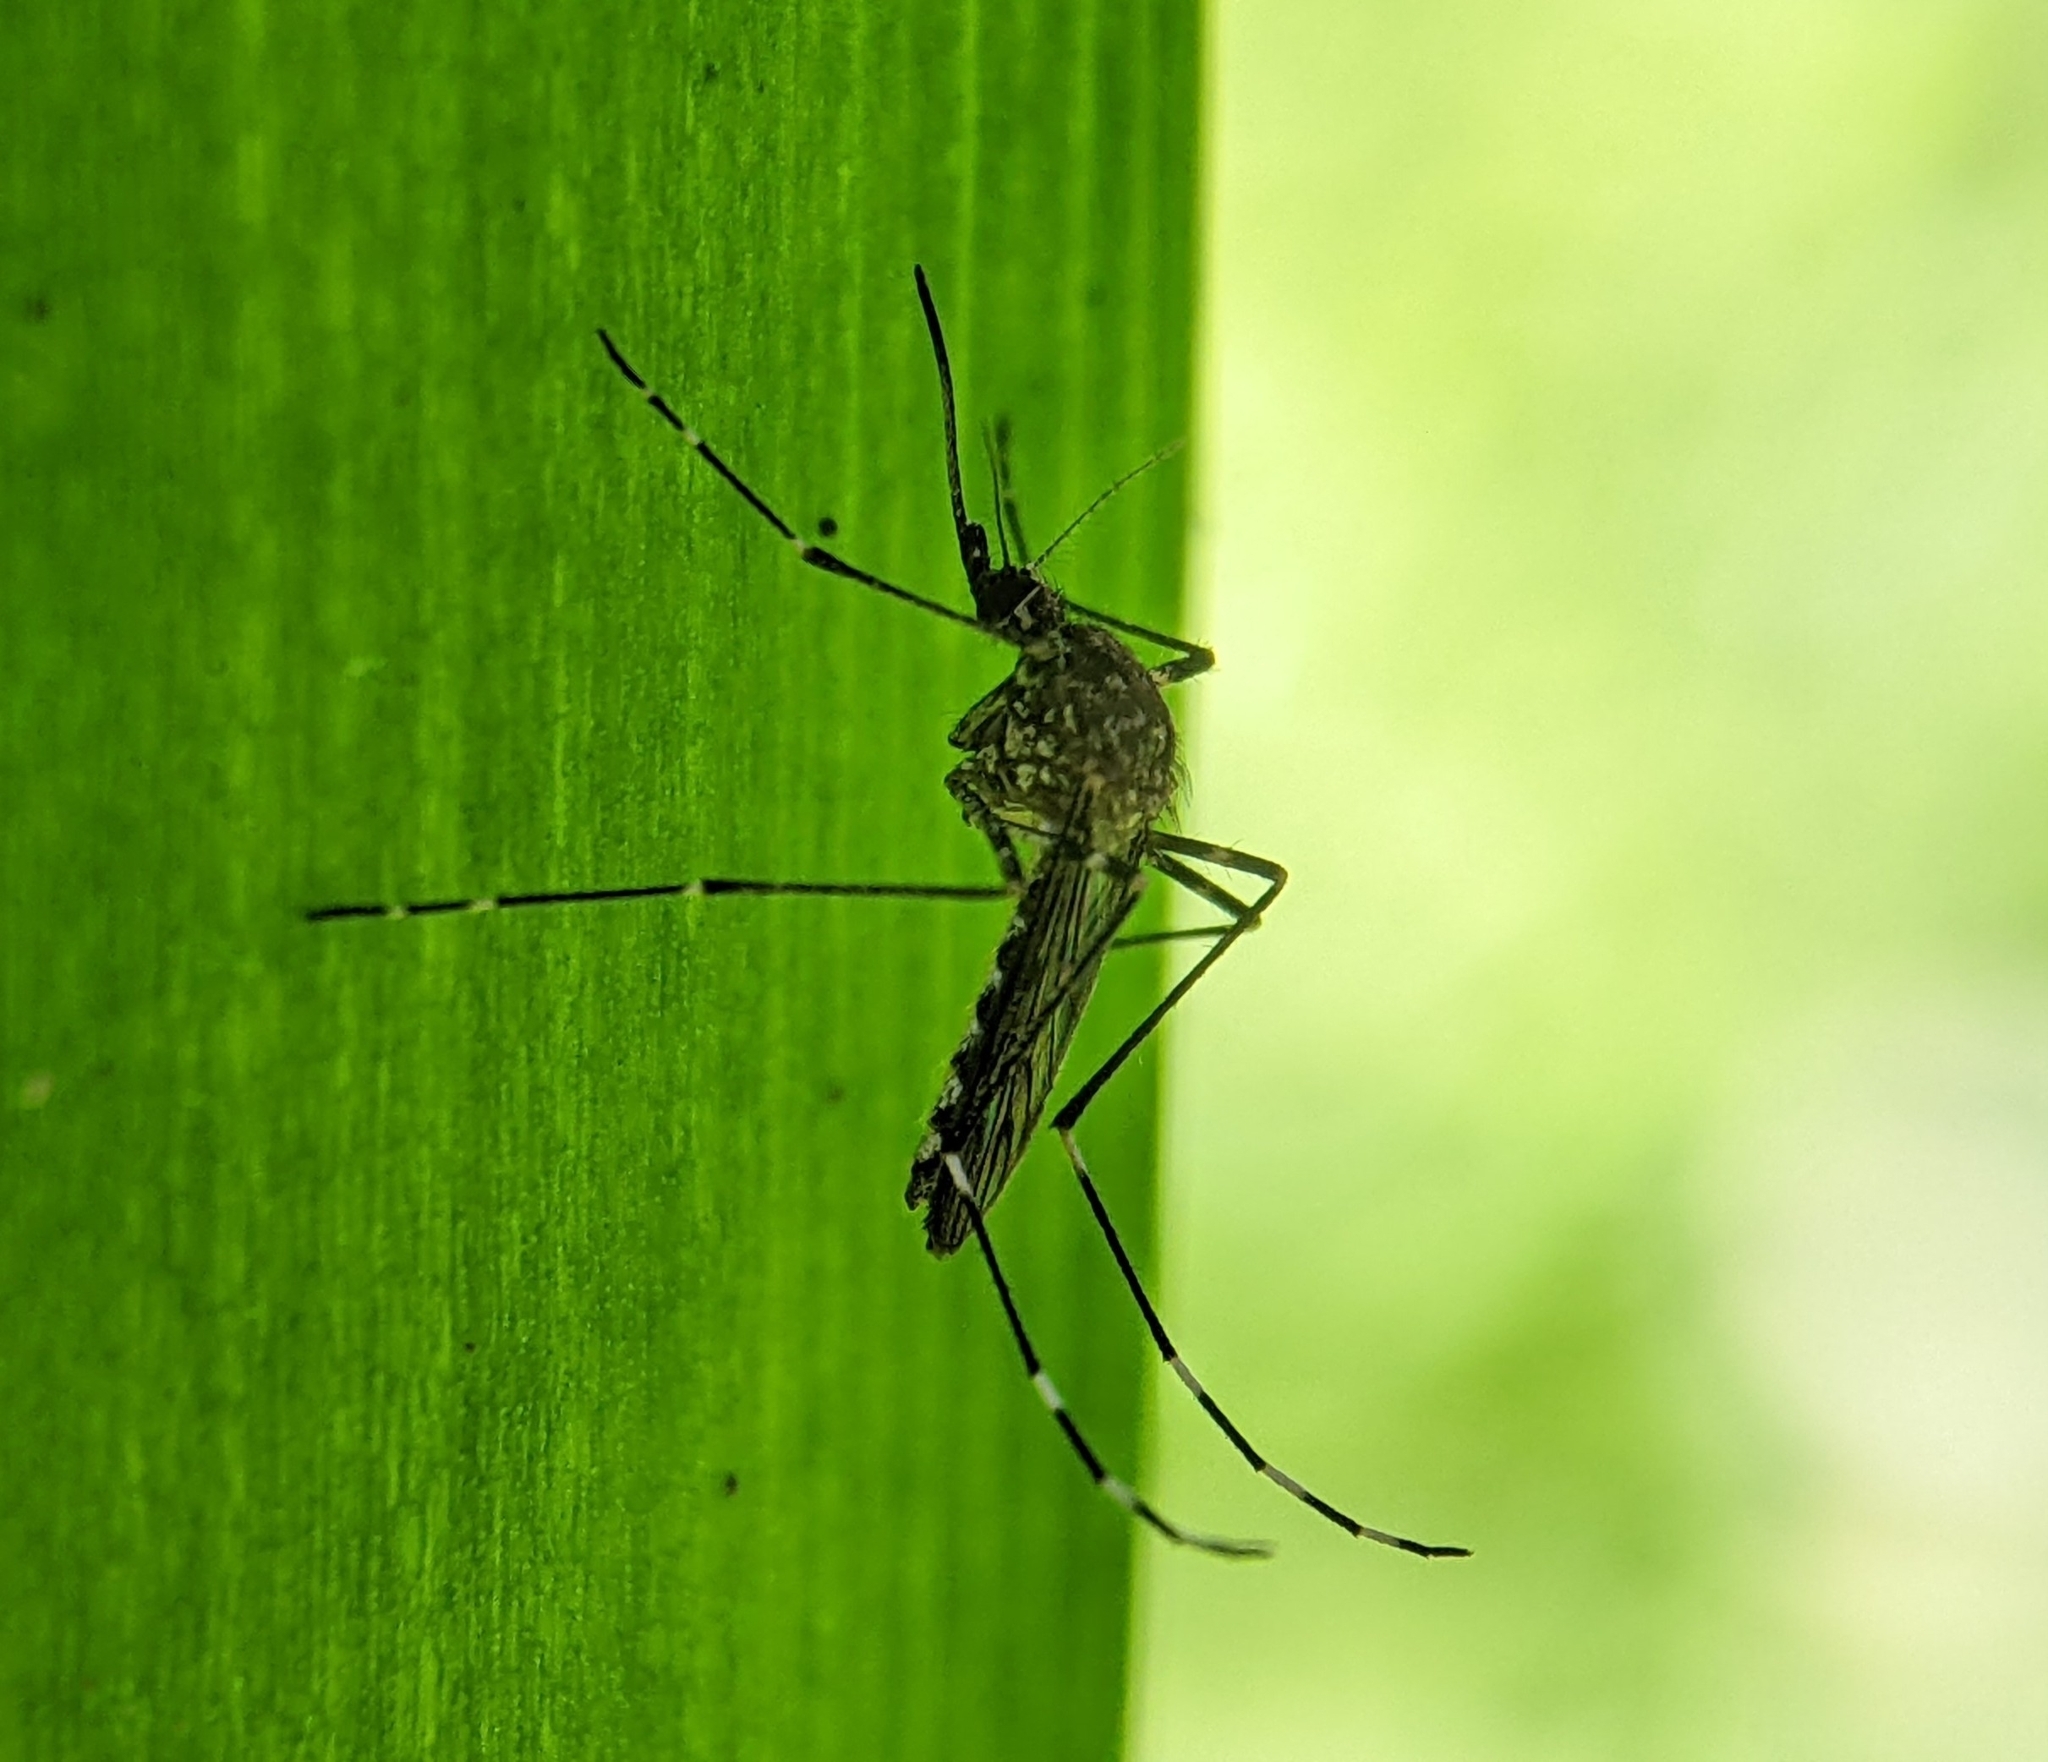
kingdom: Animalia
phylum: Arthropoda
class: Insecta
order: Diptera
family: Culicidae
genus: Aedes
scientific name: Aedes alboannulatus
